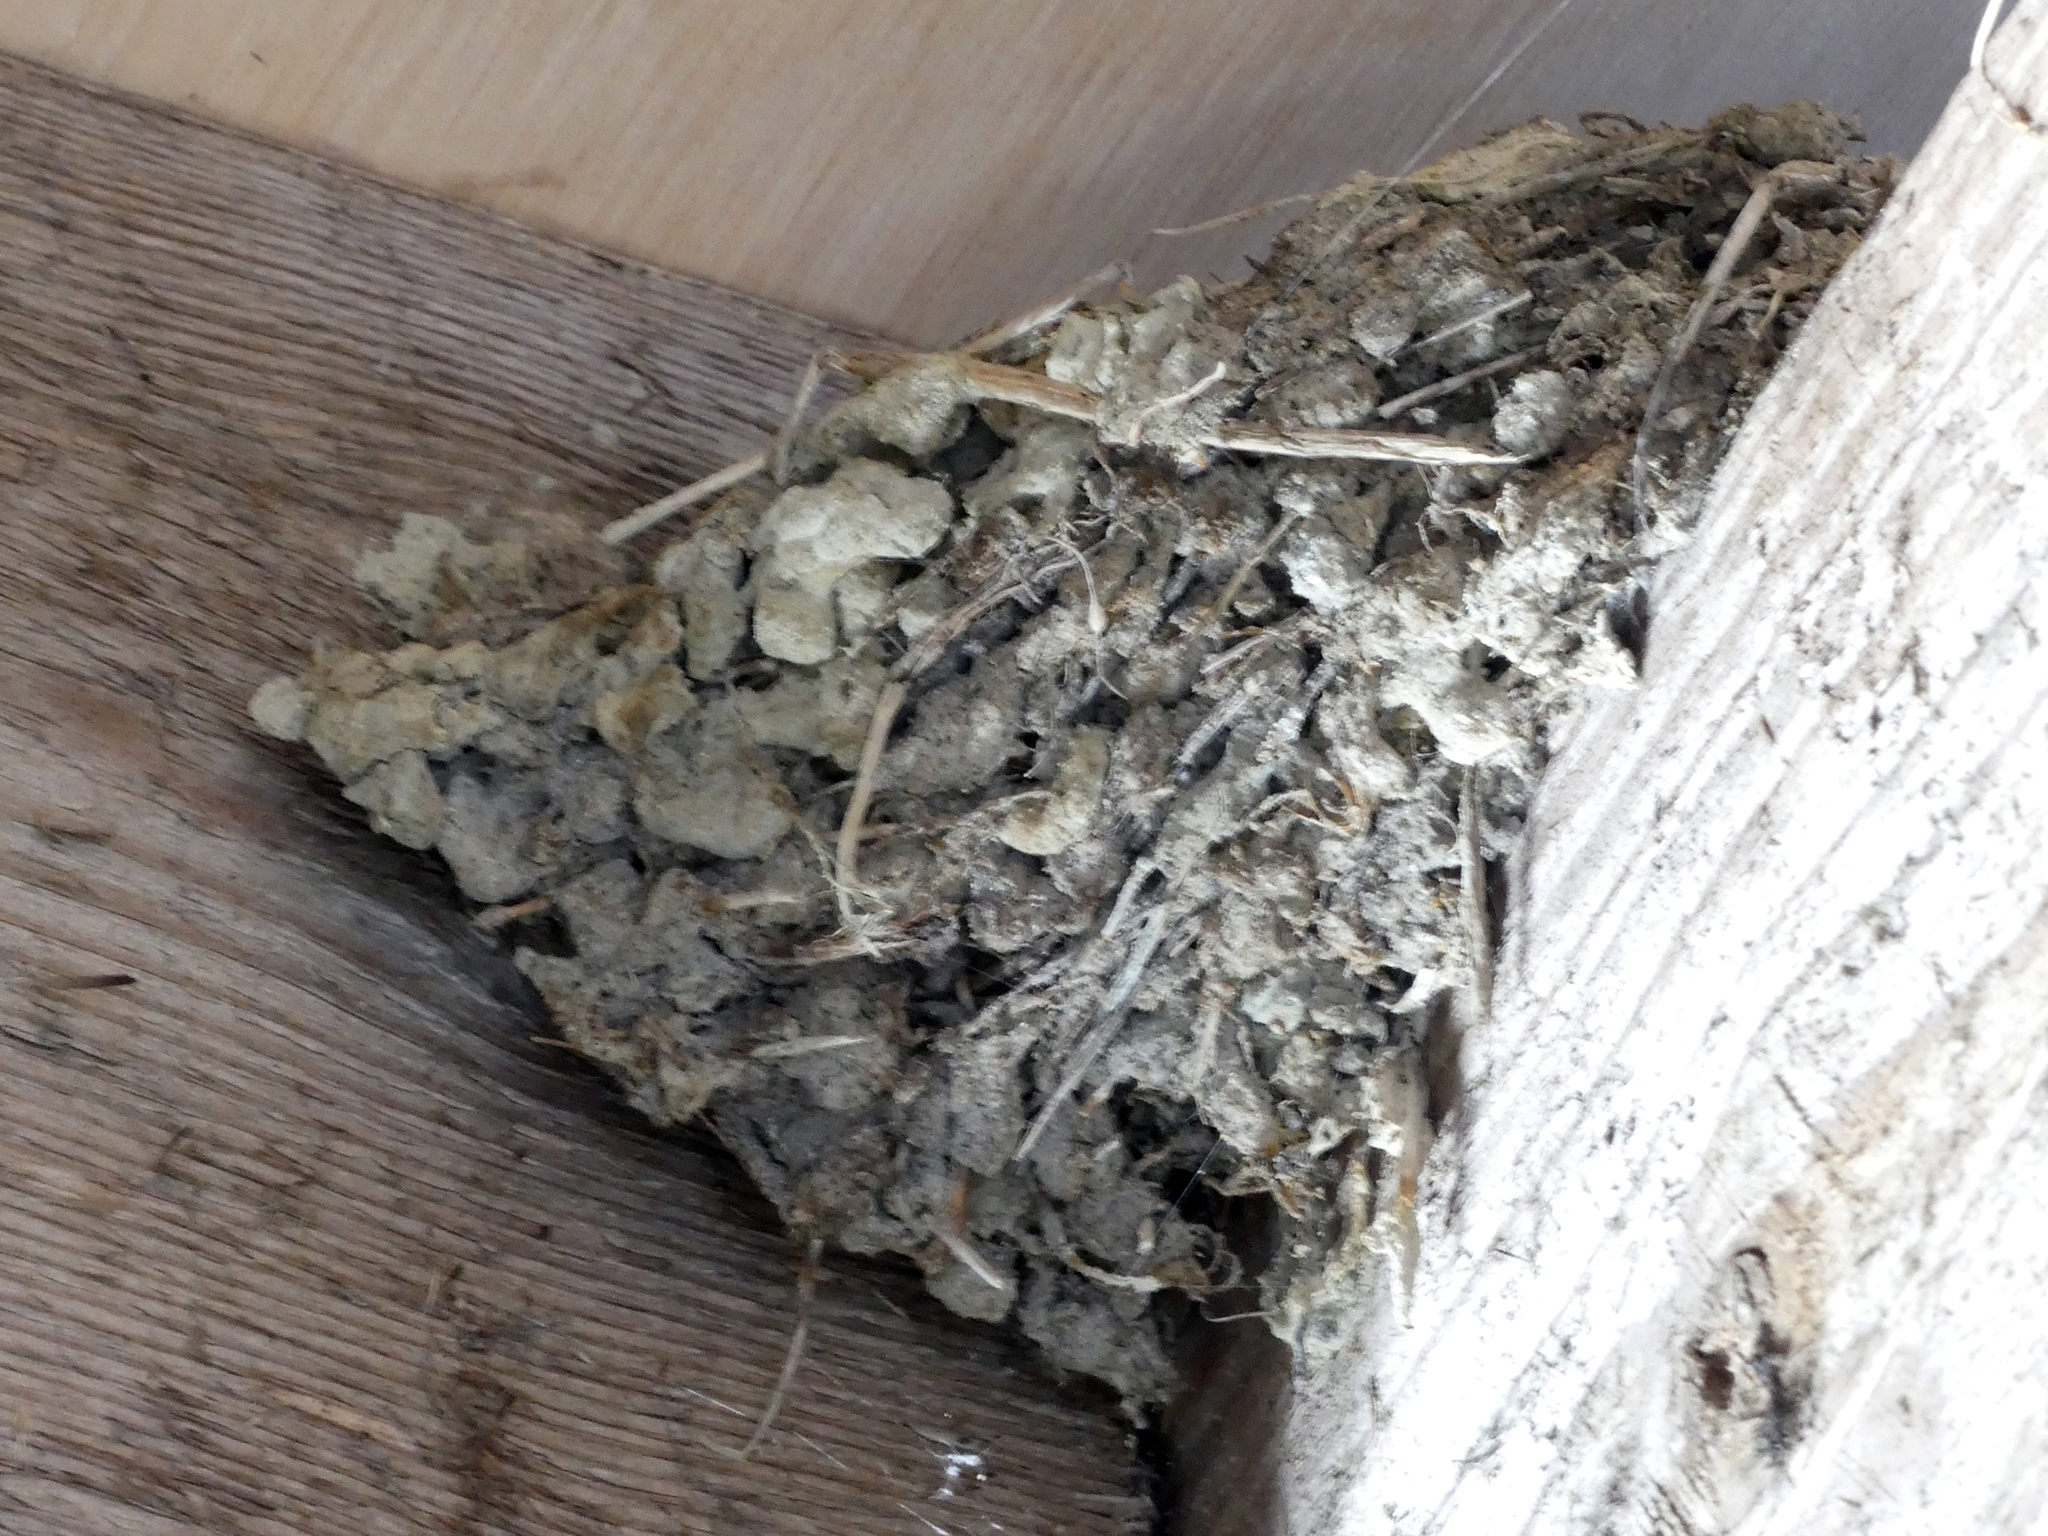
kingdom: Animalia
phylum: Chordata
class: Aves
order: Passeriformes
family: Hirundinidae
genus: Hirundo
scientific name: Hirundo rustica
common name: Barn swallow
